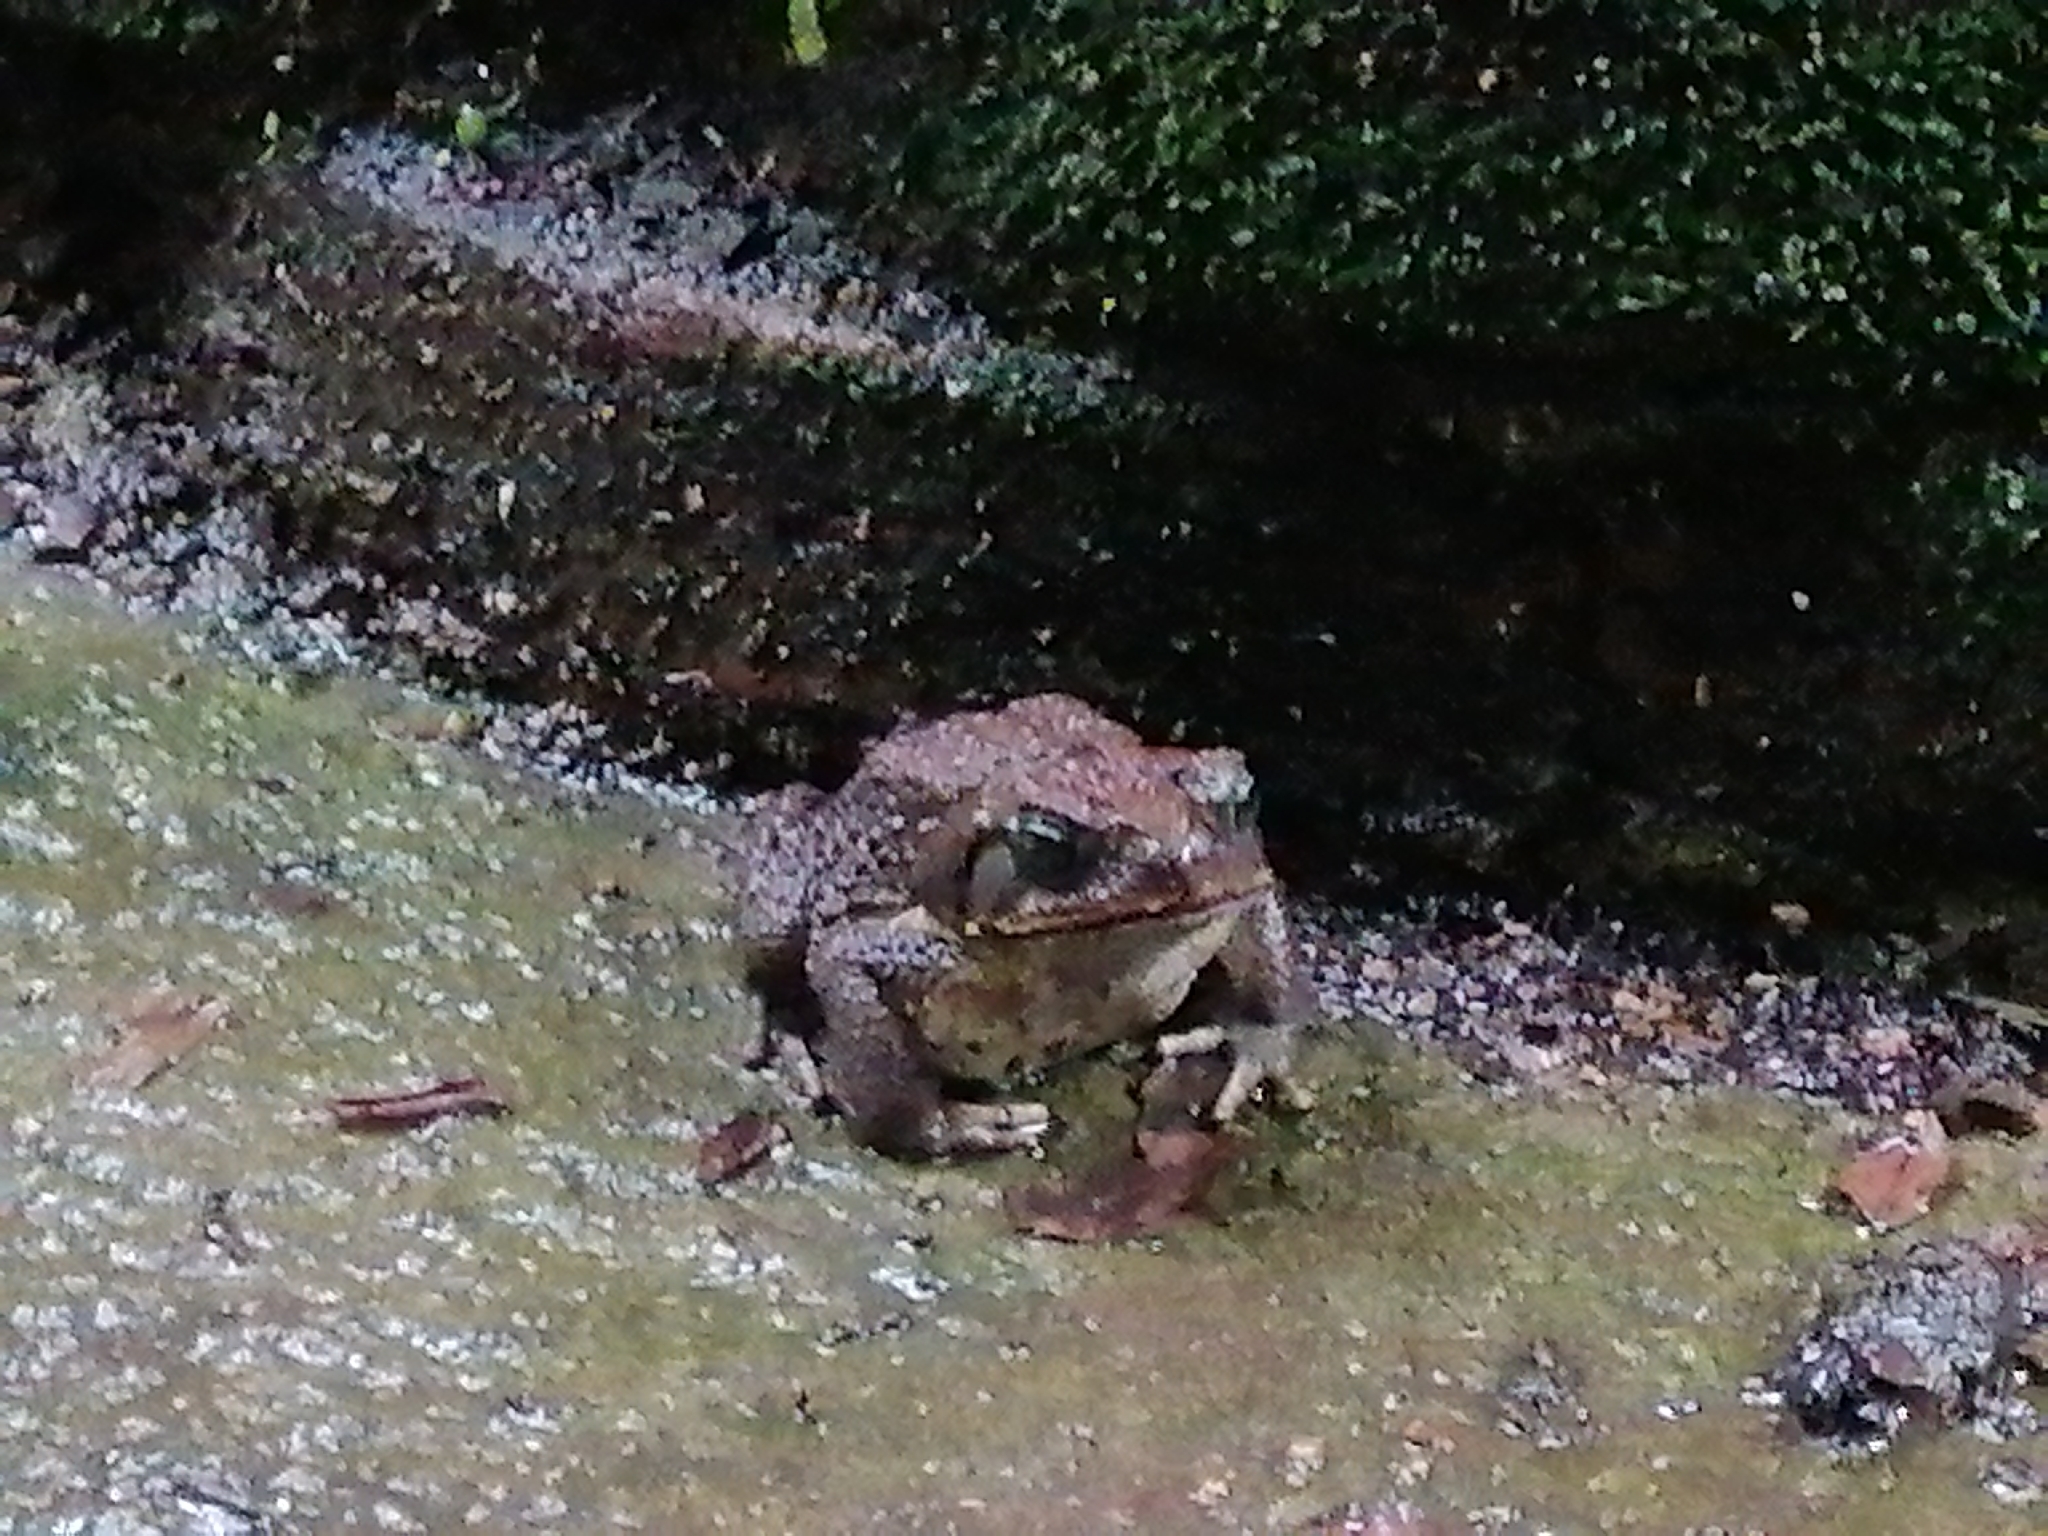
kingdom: Animalia
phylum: Chordata
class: Amphibia
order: Anura
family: Bufonidae
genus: Rhinella
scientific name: Rhinella horribilis
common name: Mesoamerican cane toad
